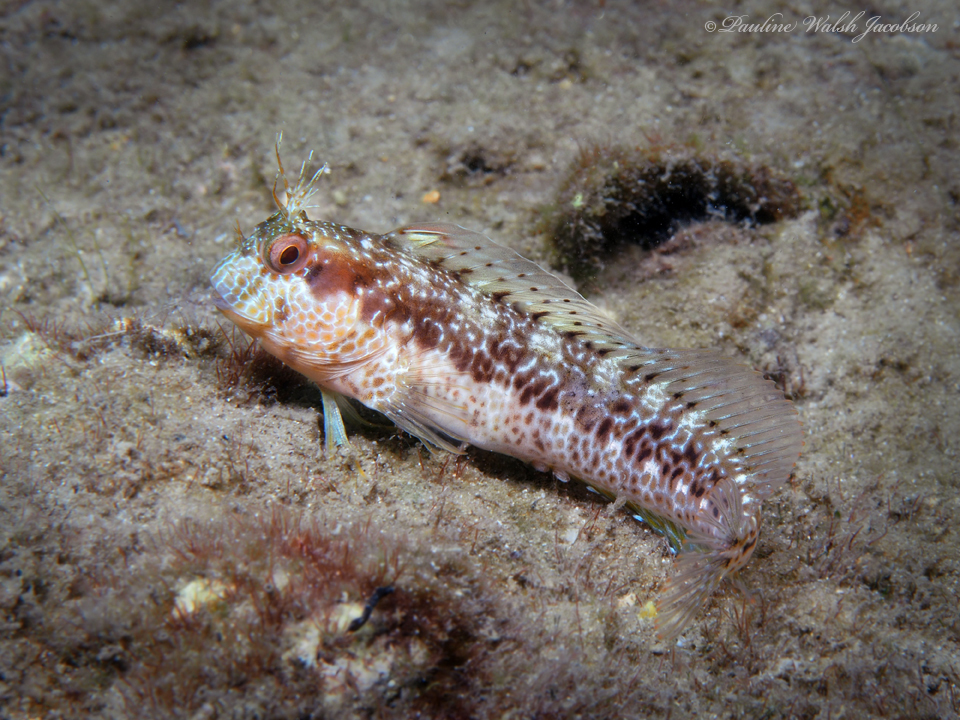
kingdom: Animalia
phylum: Chordata
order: Perciformes
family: Blenniidae
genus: Parablennius
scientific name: Parablennius marmoreus
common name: Seaweed blenny
